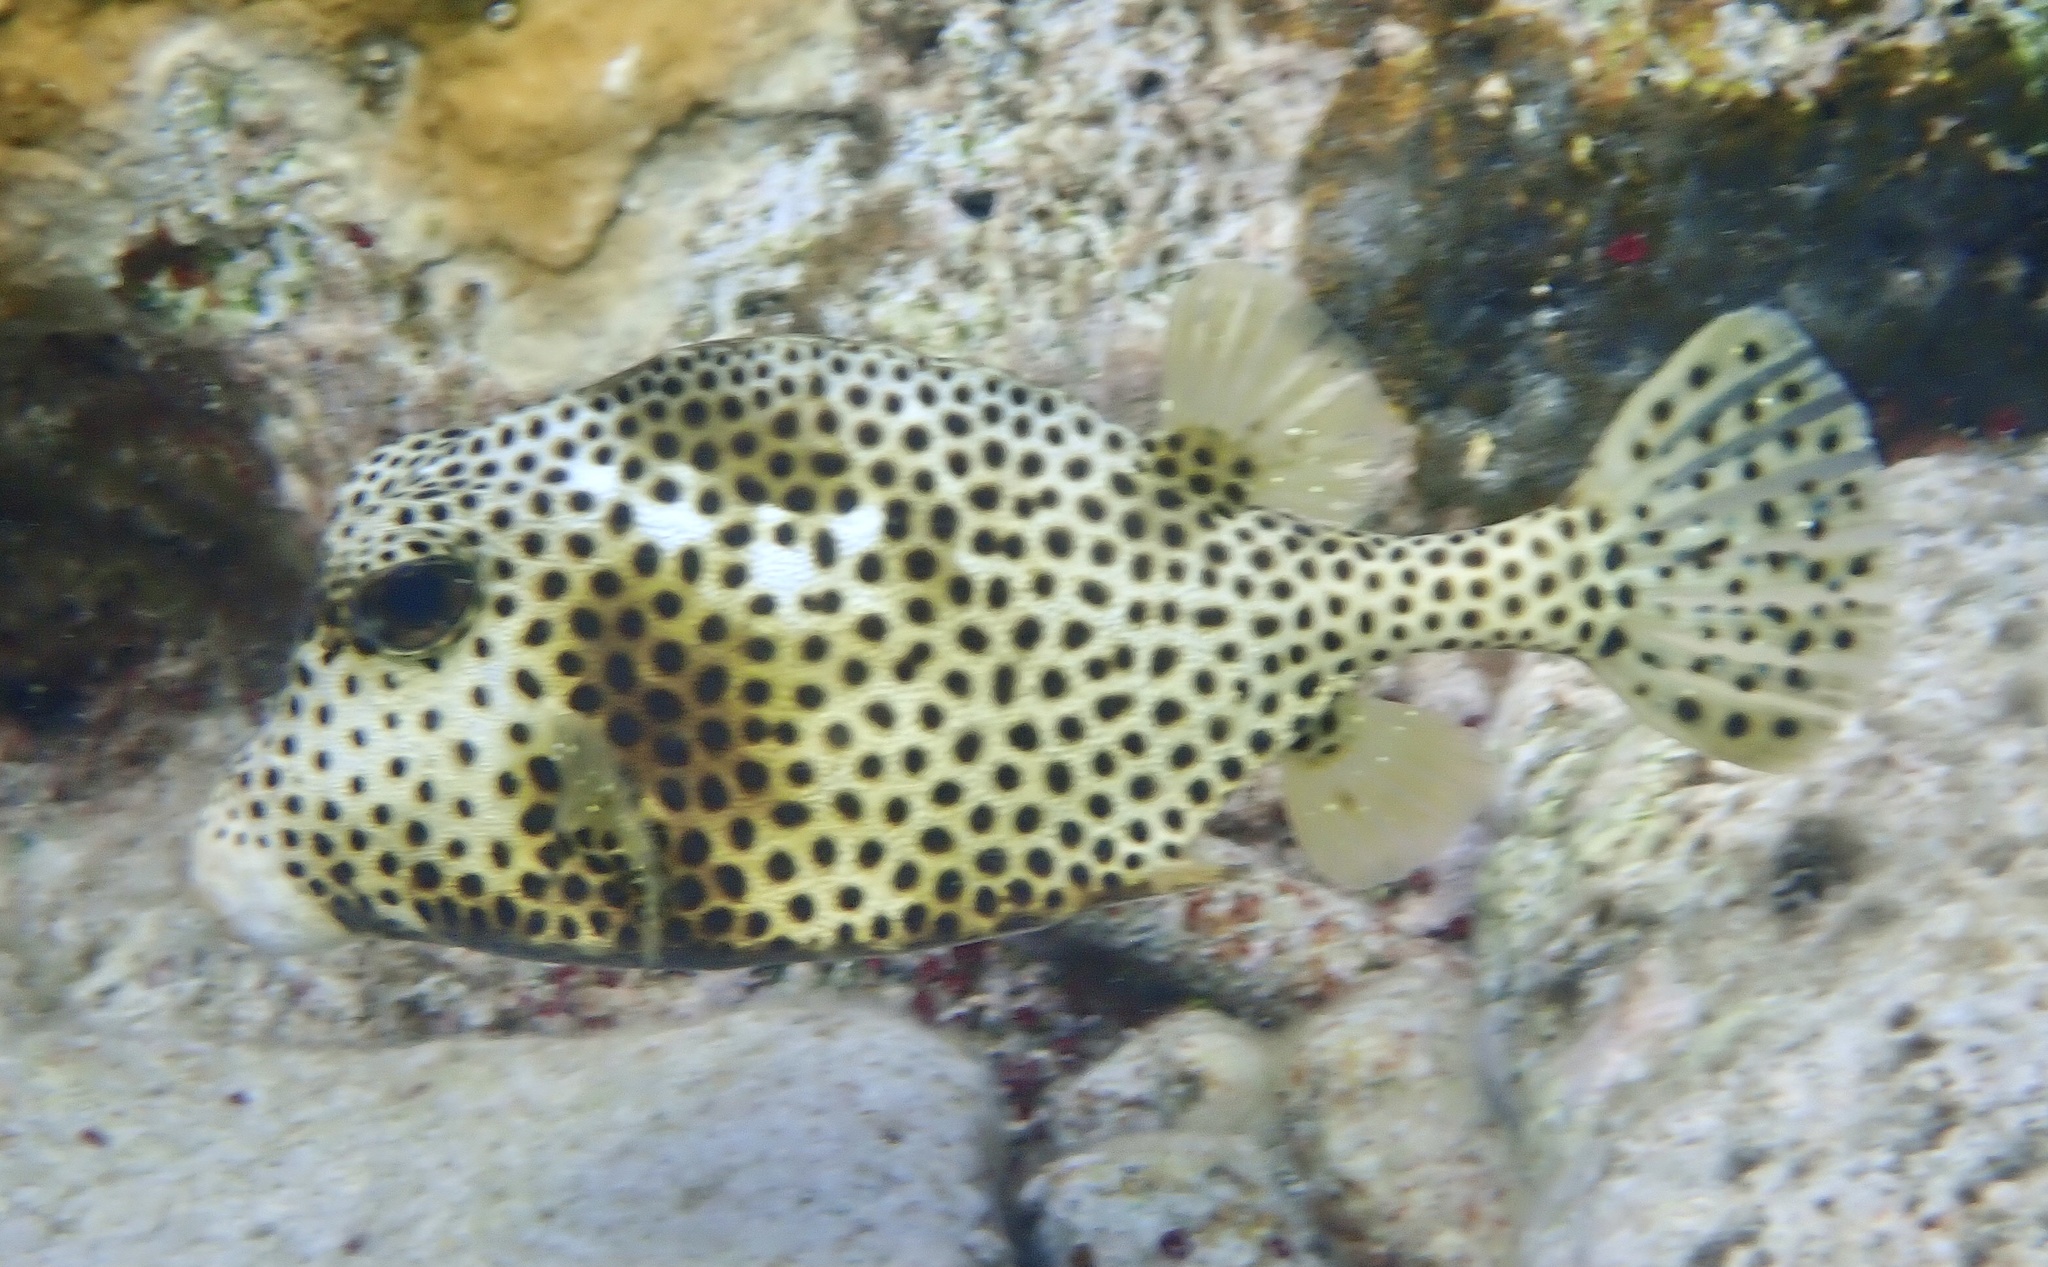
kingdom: Animalia
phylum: Chordata
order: Tetraodontiformes
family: Ostraciidae
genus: Lactophrys
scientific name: Lactophrys bicaudalis
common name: Spotted trunkfish
